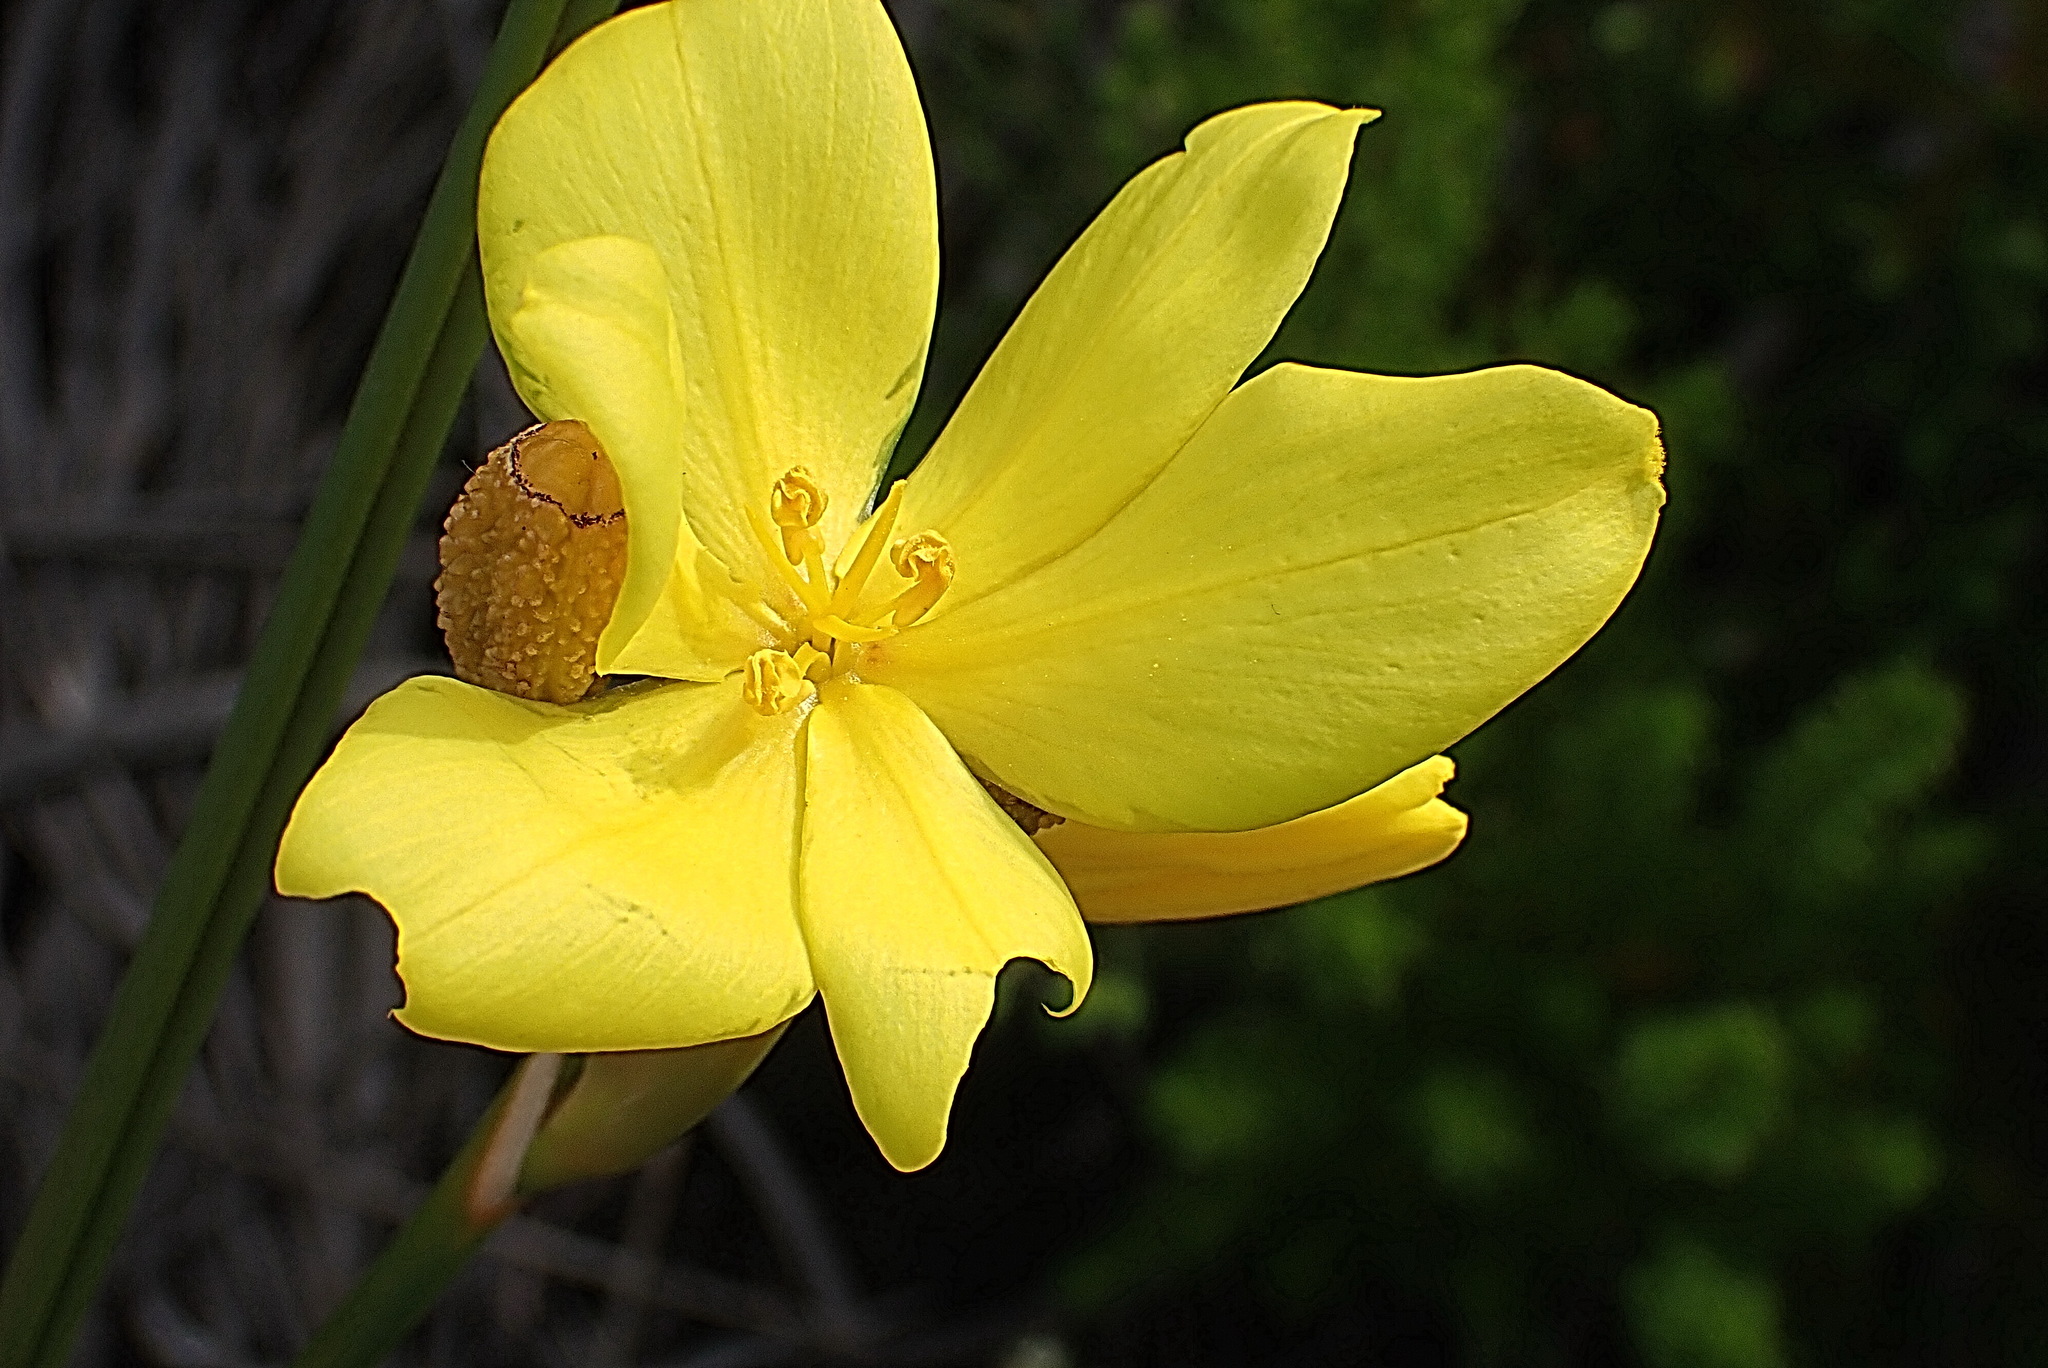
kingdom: Plantae
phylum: Tracheophyta
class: Liliopsida
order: Asparagales
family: Iridaceae
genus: Bobartia
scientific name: Bobartia aphylla
